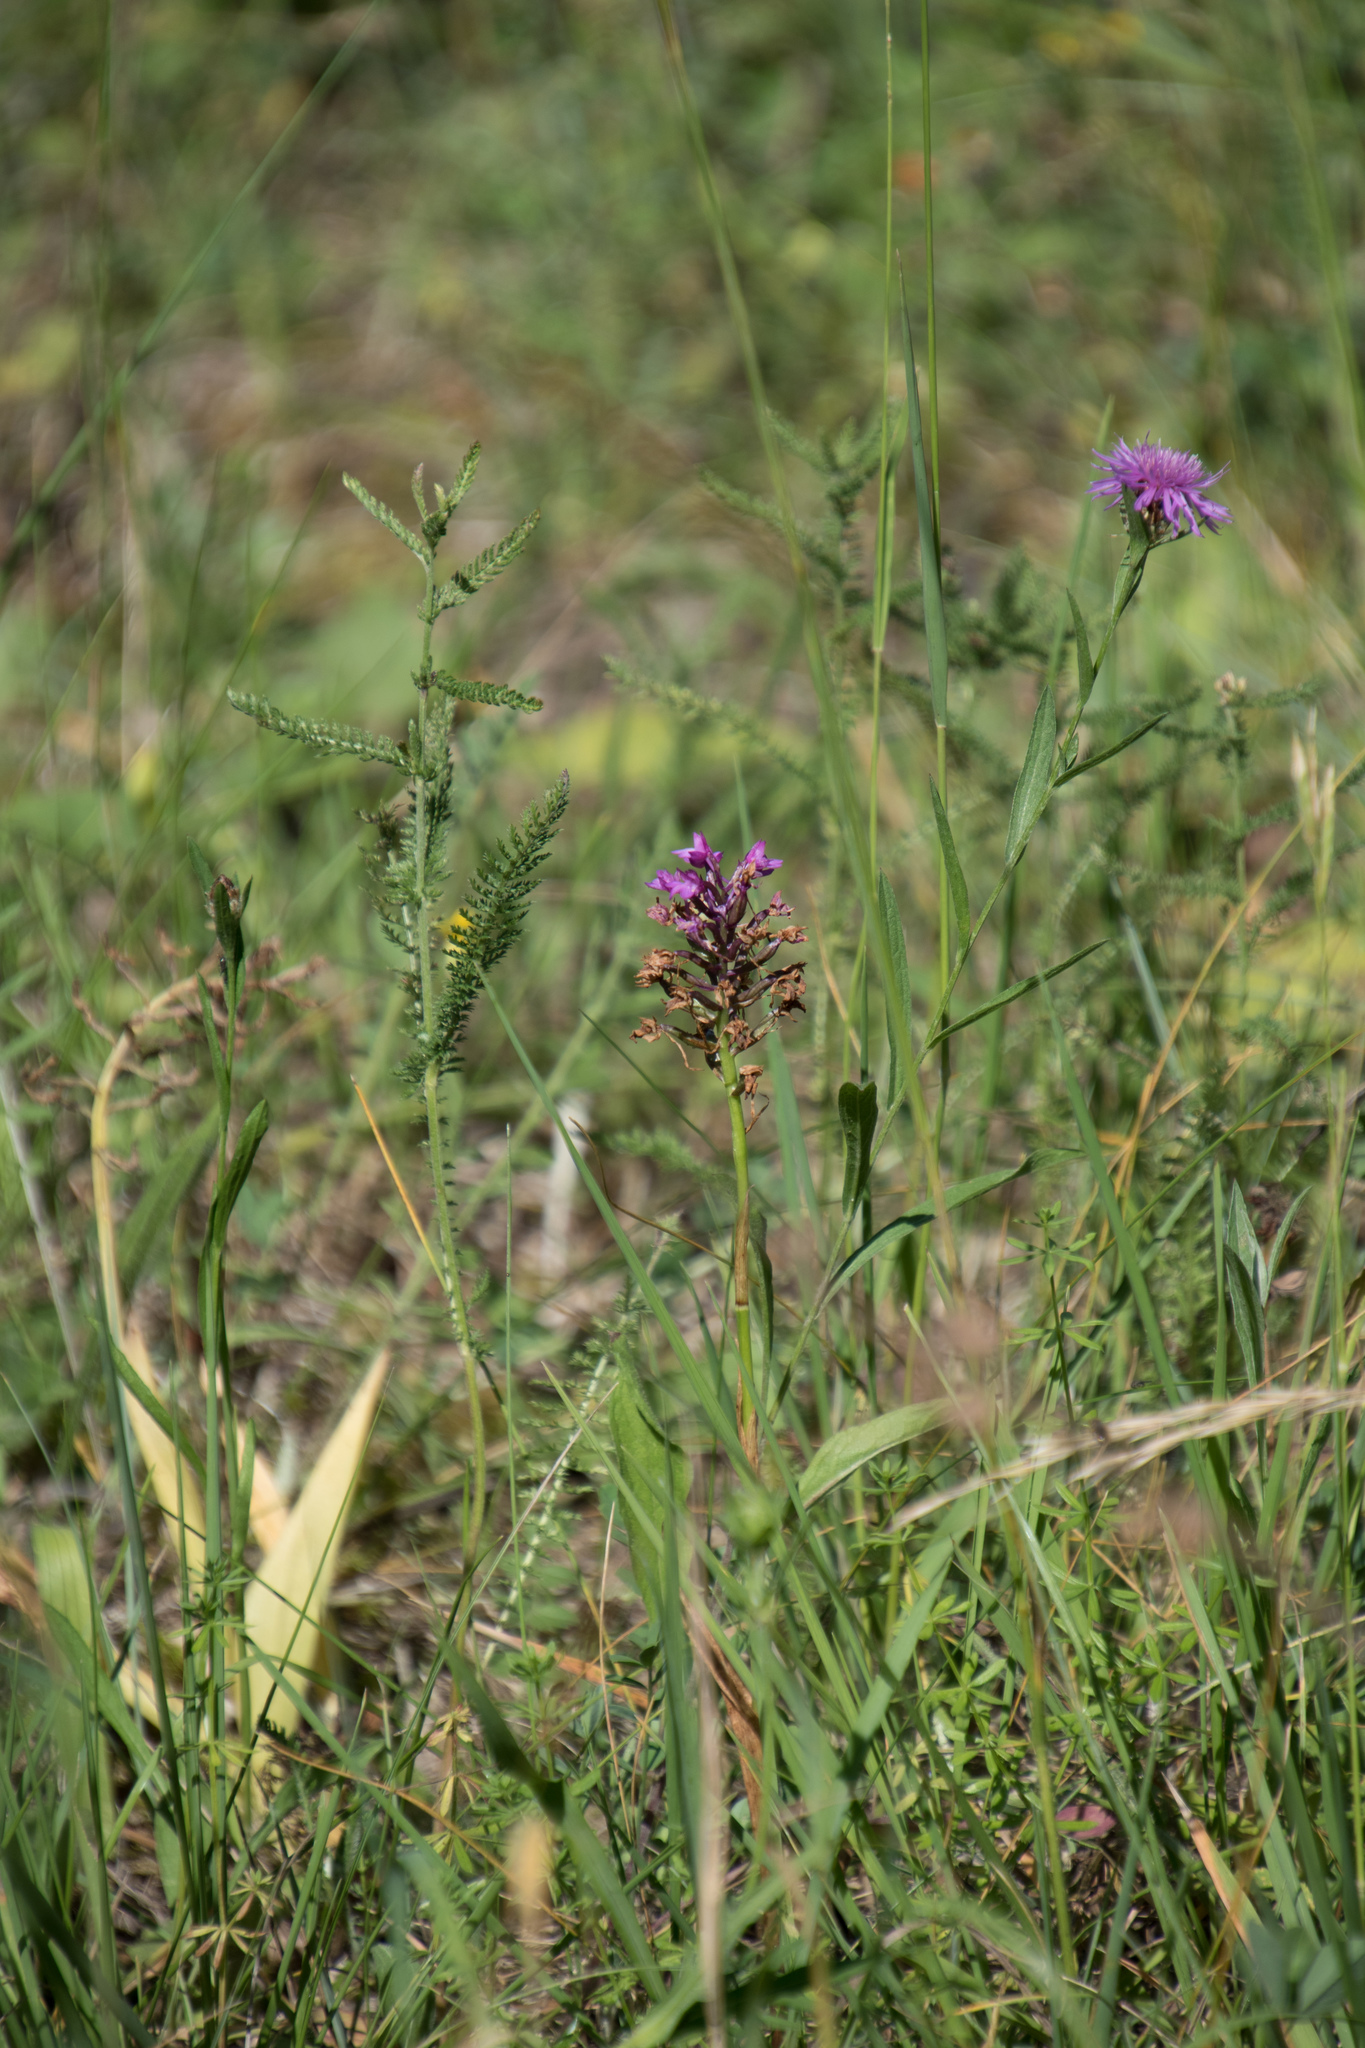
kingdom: Plantae
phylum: Tracheophyta
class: Liliopsida
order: Asparagales
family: Orchidaceae
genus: Anacamptis
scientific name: Anacamptis pyramidalis
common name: Pyramidal orchid
